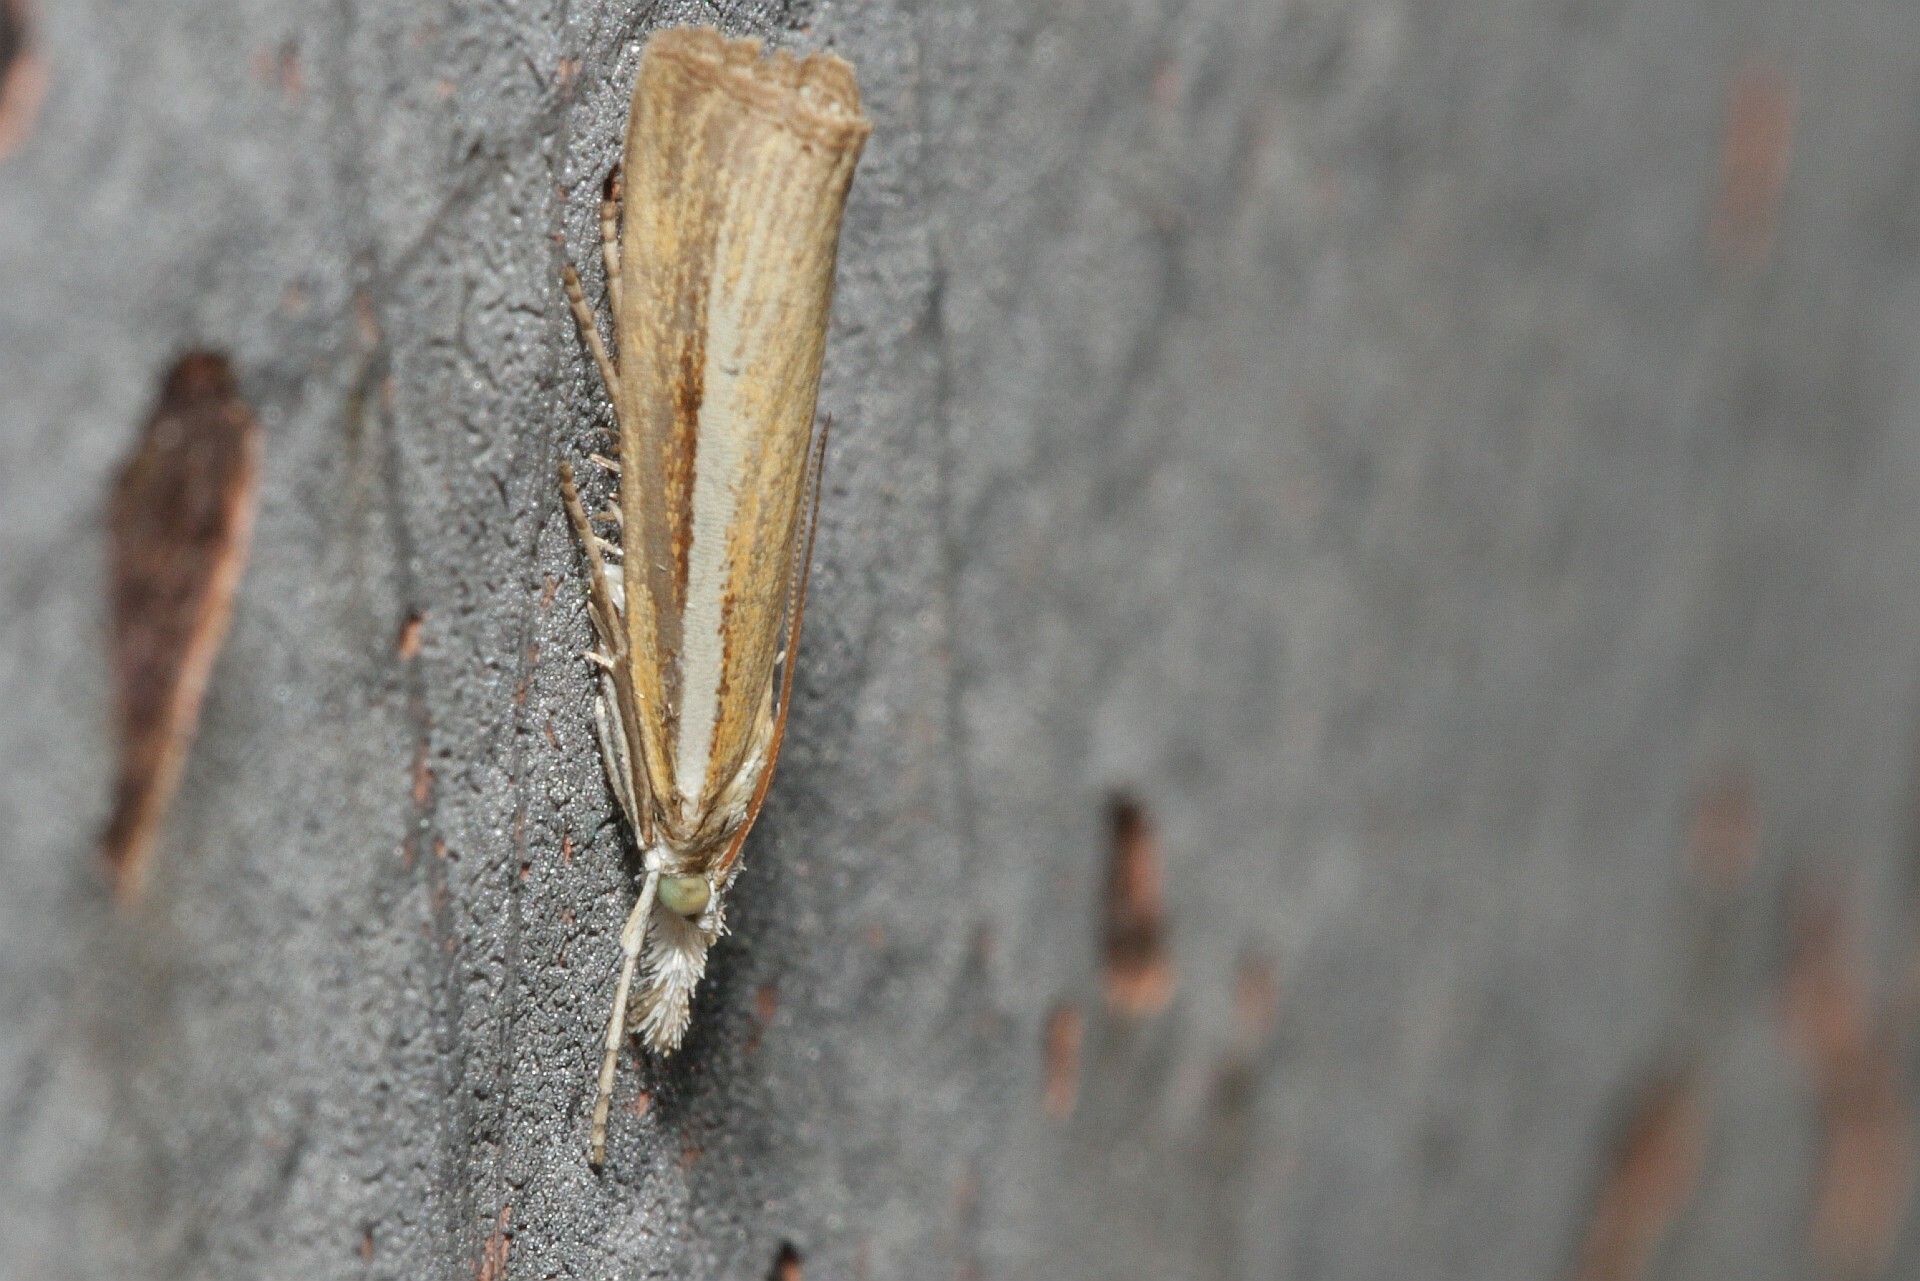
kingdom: Animalia
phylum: Arthropoda
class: Insecta
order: Lepidoptera
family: Crambidae
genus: Agriphila
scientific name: Agriphila selasella
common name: Pale-streak grass-veneer
